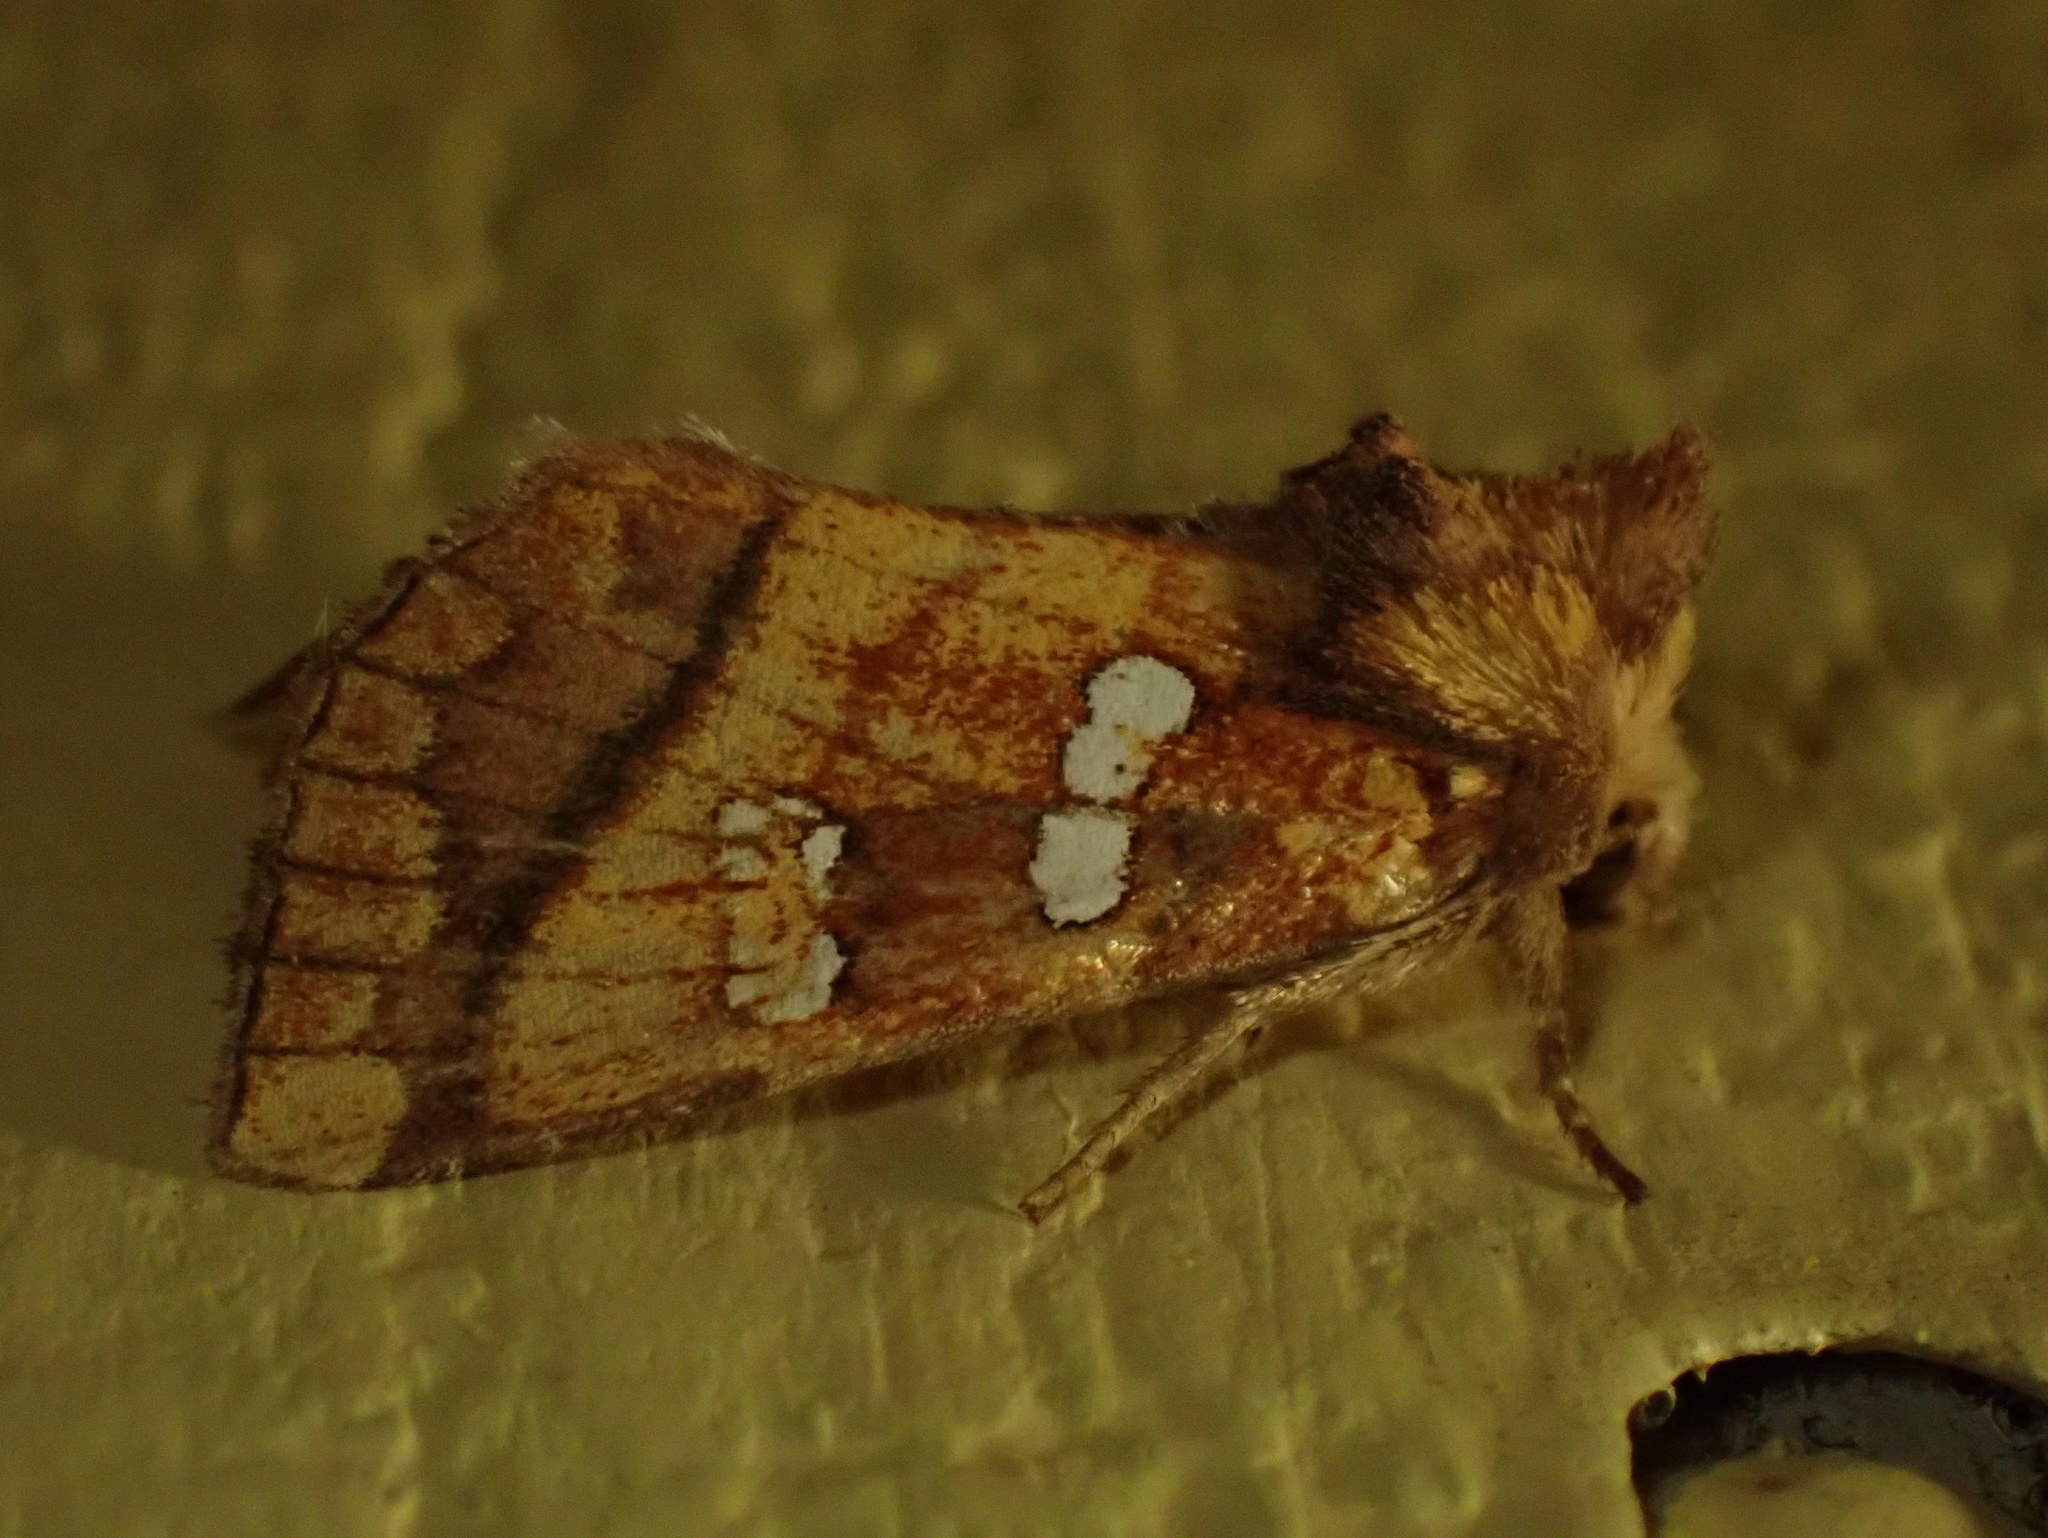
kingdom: Animalia
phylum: Arthropoda
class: Insecta
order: Lepidoptera
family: Noctuidae
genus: Papaipema
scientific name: Papaipema pterisii
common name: Bracken borer moth
